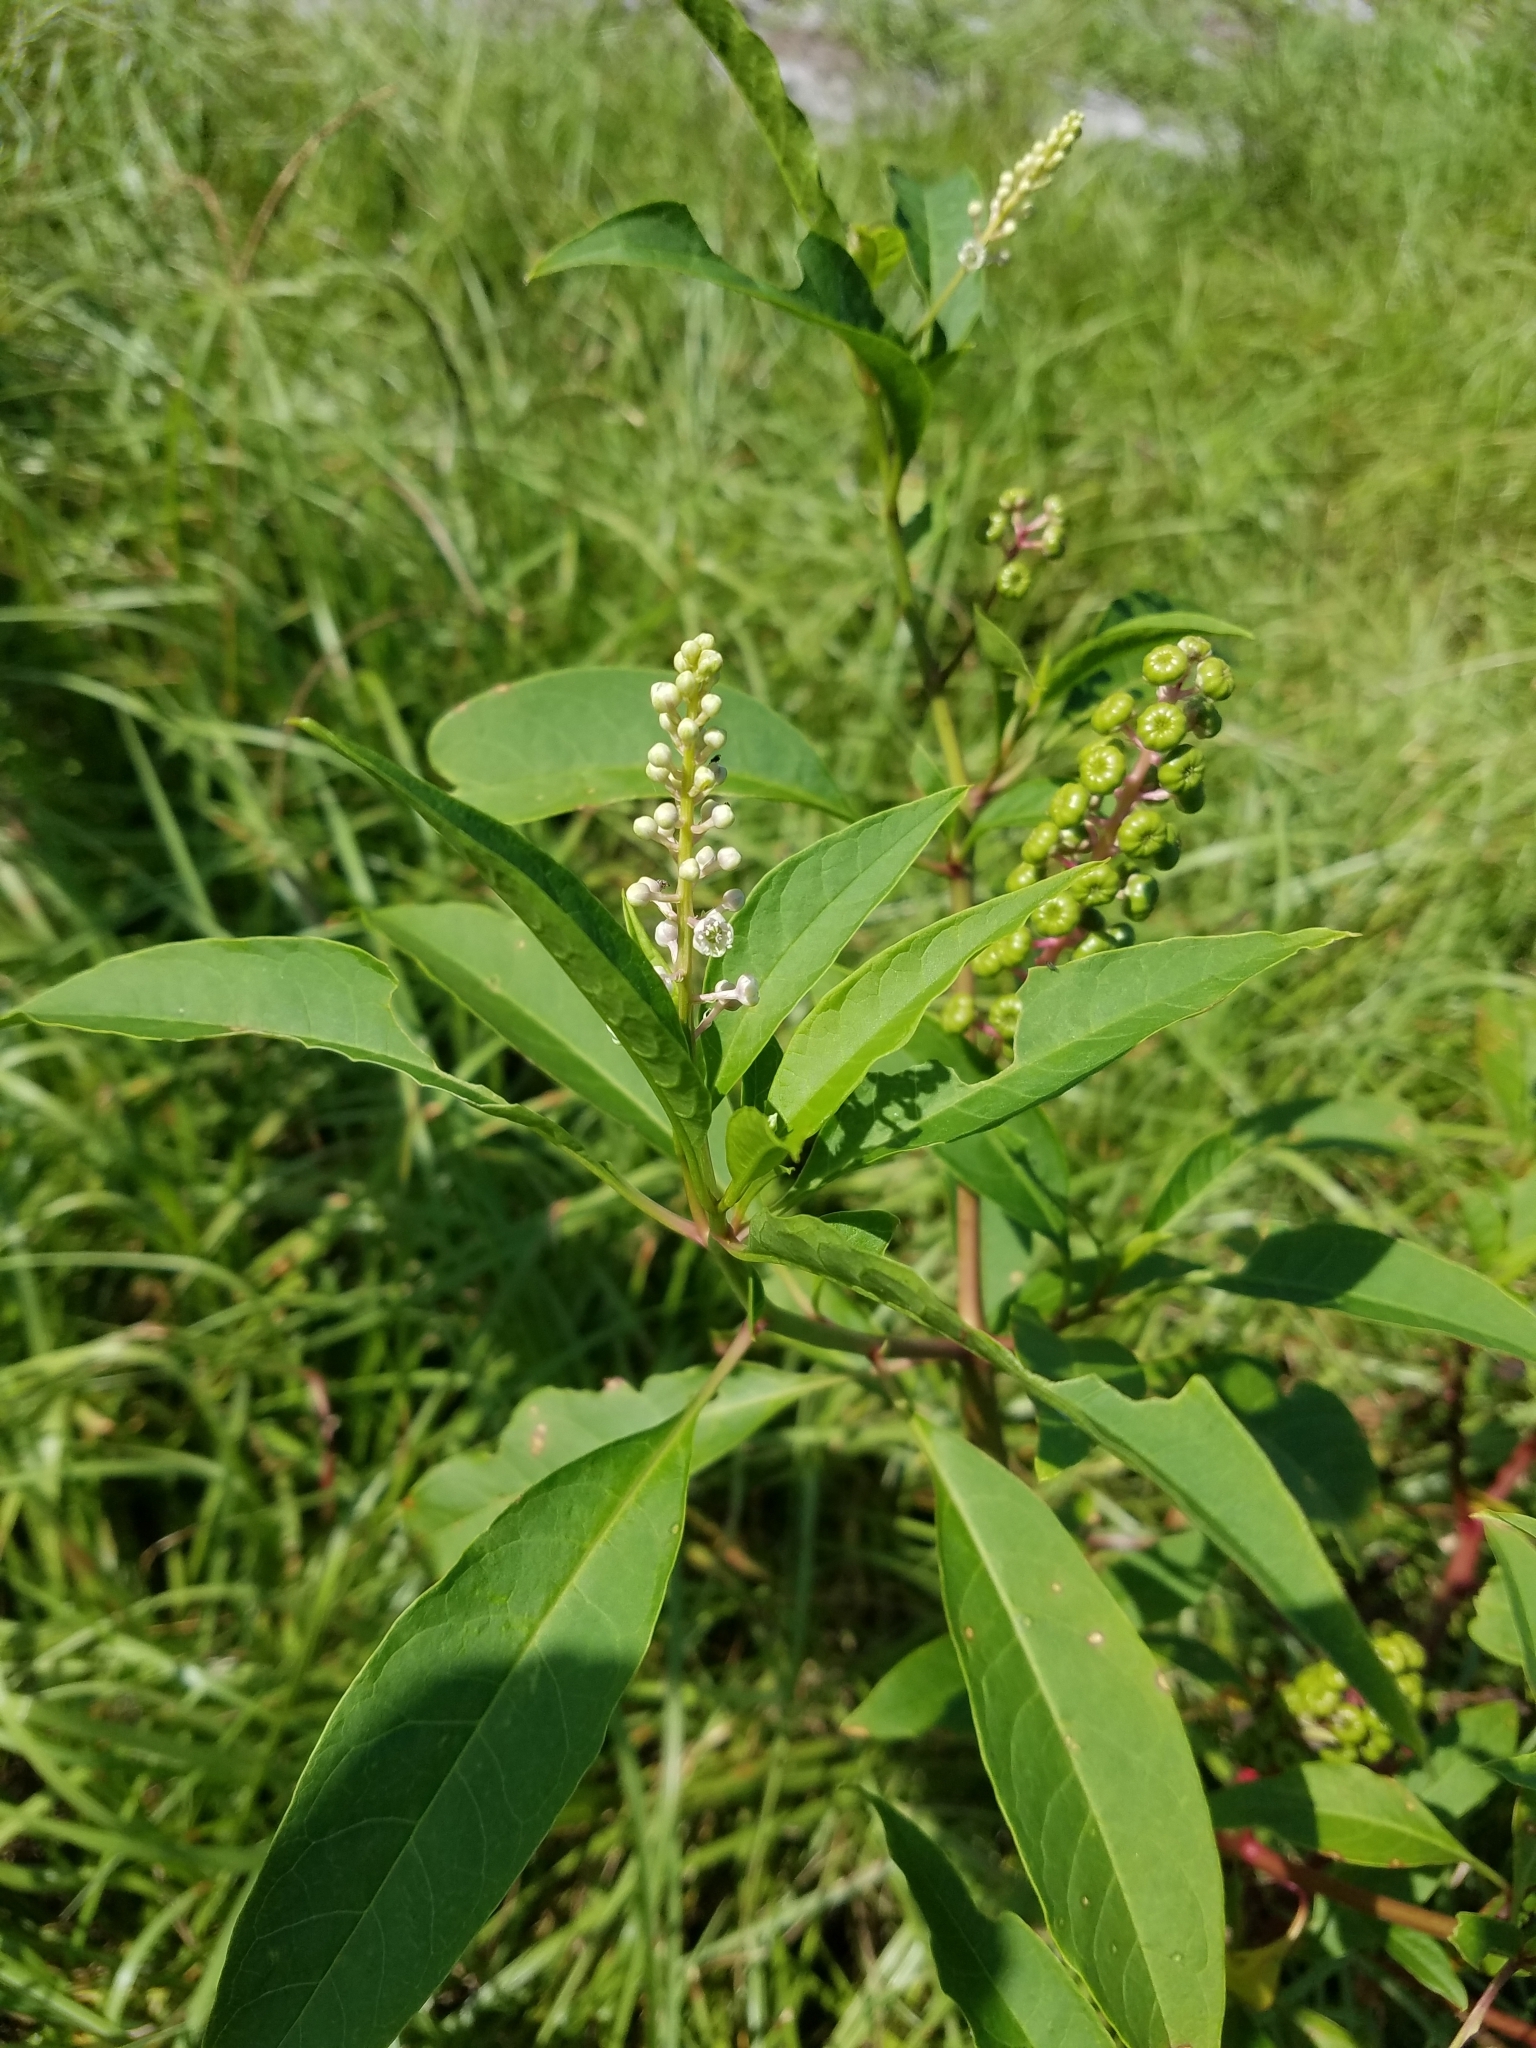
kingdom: Plantae
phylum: Tracheophyta
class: Magnoliopsida
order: Caryophyllales
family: Phytolaccaceae
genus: Phytolacca
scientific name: Phytolacca americana
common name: American pokeweed
